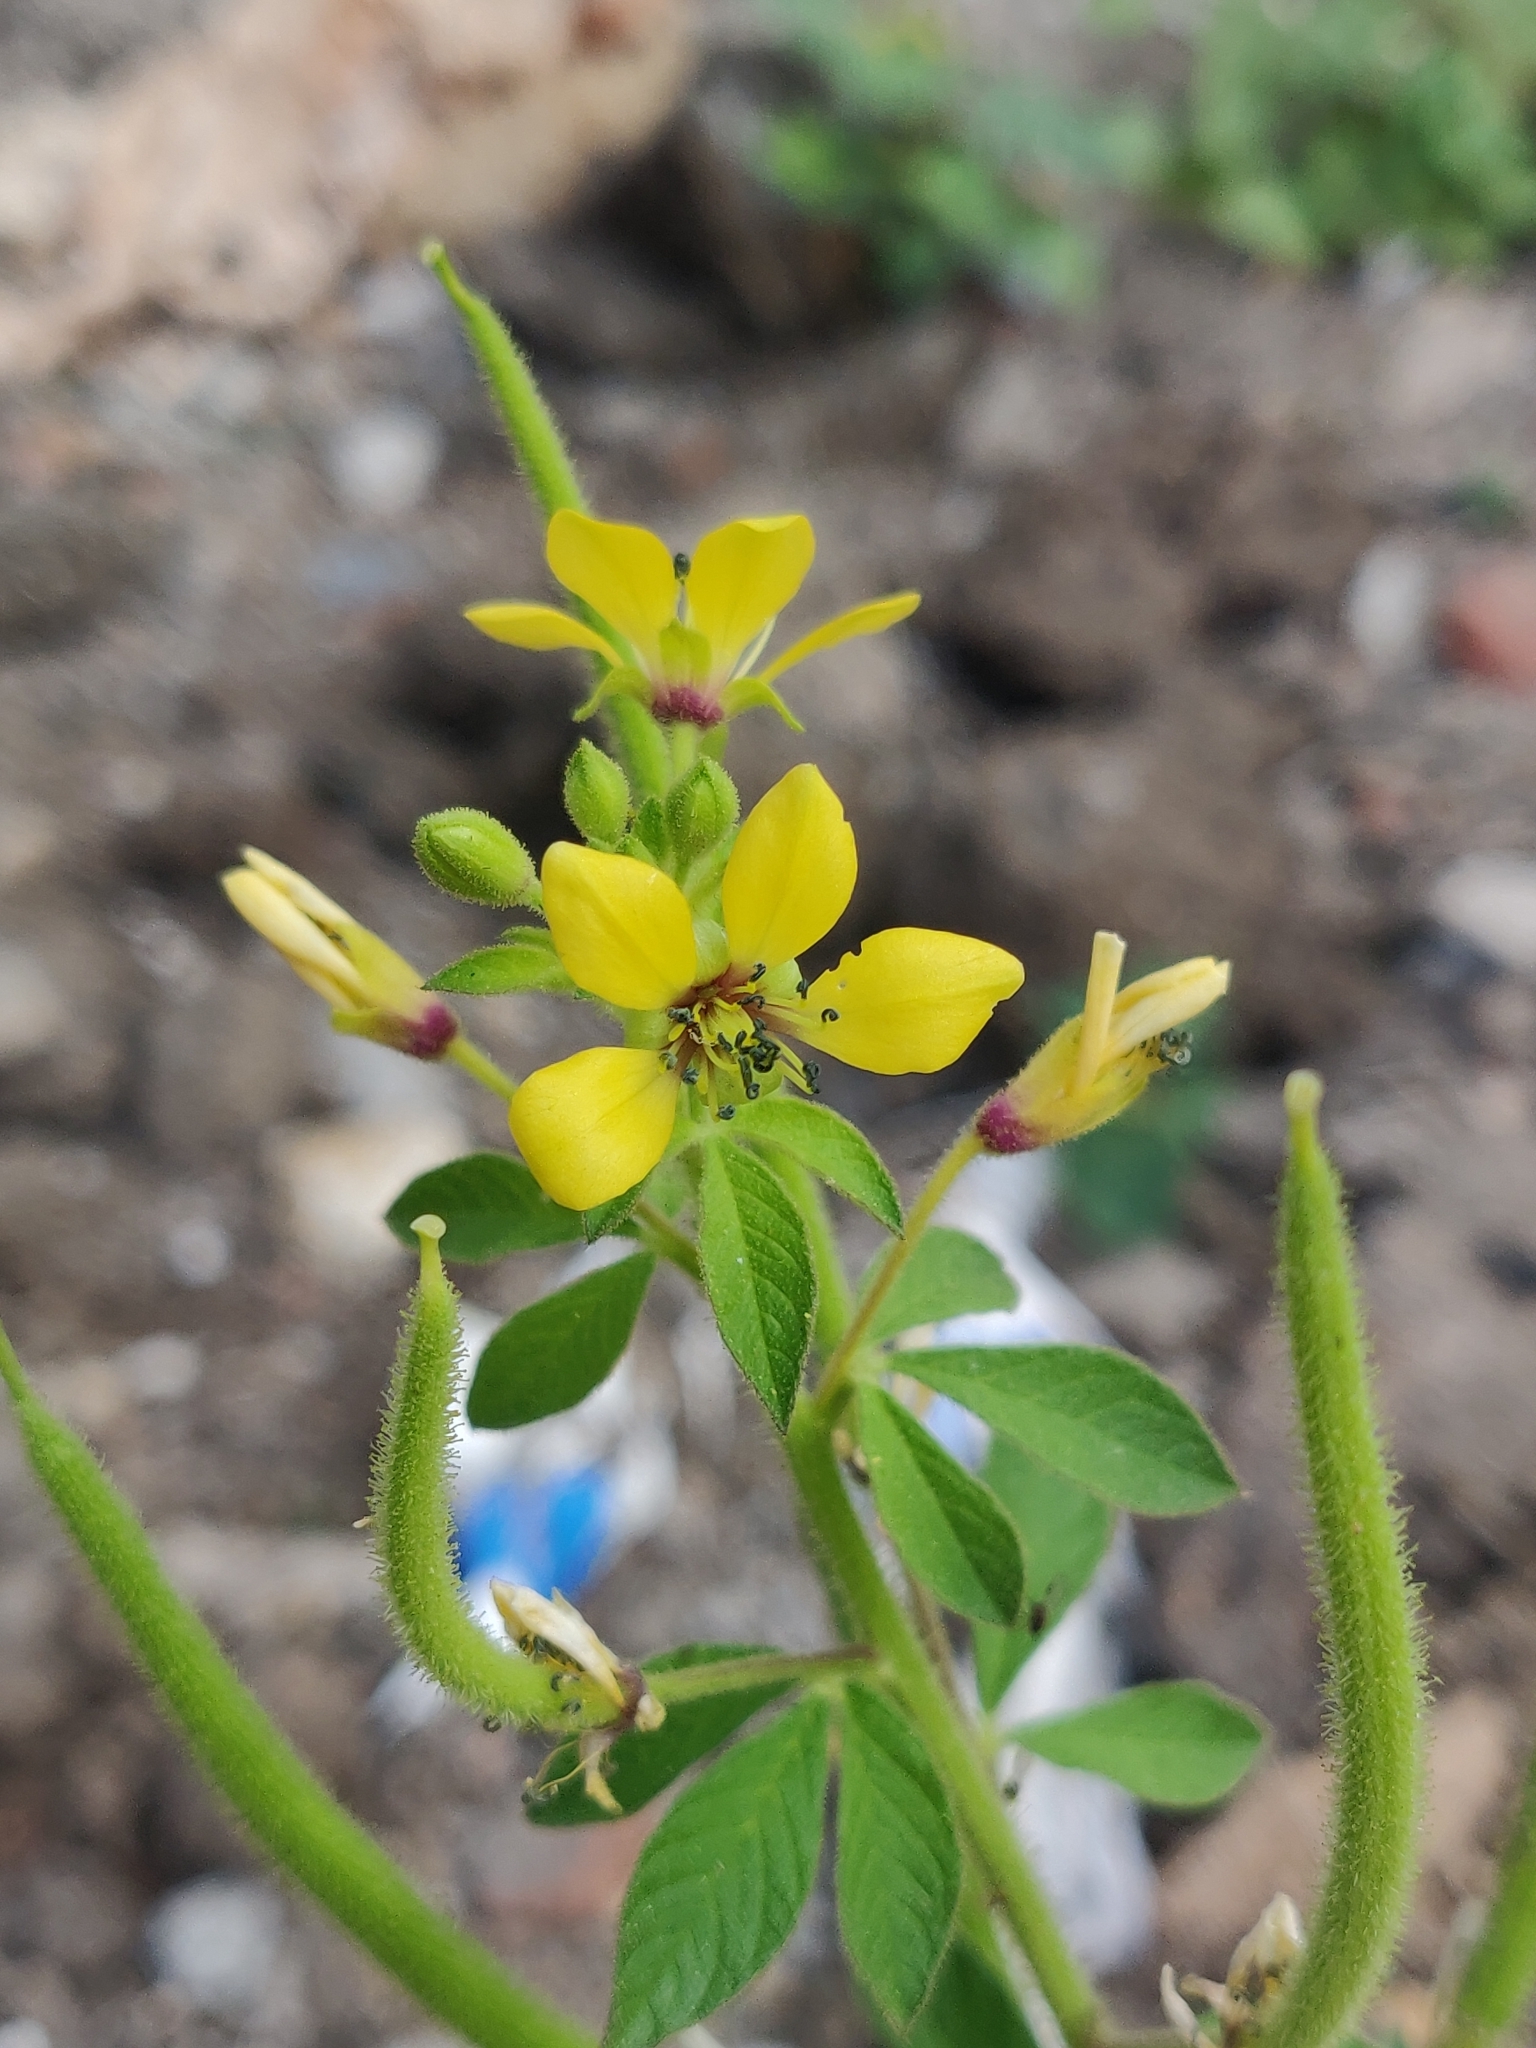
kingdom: Plantae
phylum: Tracheophyta
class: Magnoliopsida
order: Brassicales
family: Cleomaceae
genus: Arivela
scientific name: Arivela viscosa
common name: Asian spiderflower
